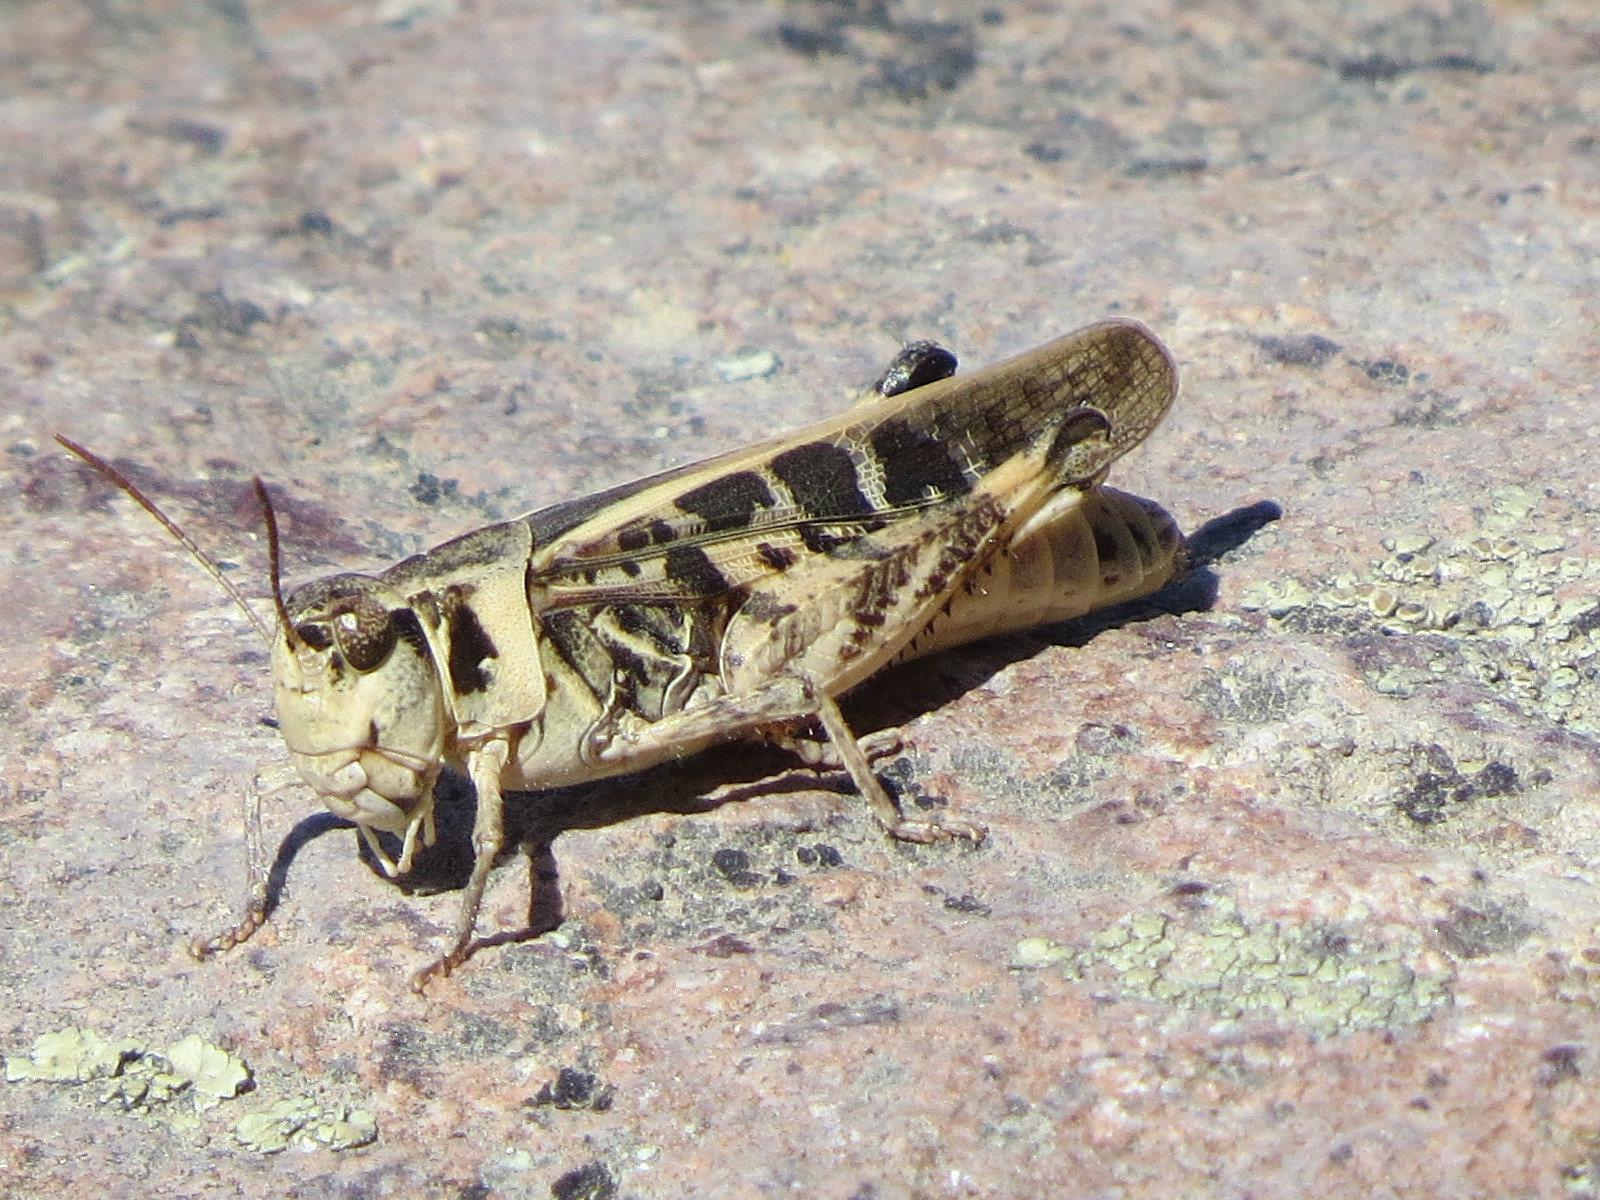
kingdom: Animalia
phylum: Arthropoda
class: Insecta
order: Orthoptera
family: Acrididae
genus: Camnula
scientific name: Camnula pellucida
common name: Clear-winged grasshopper
